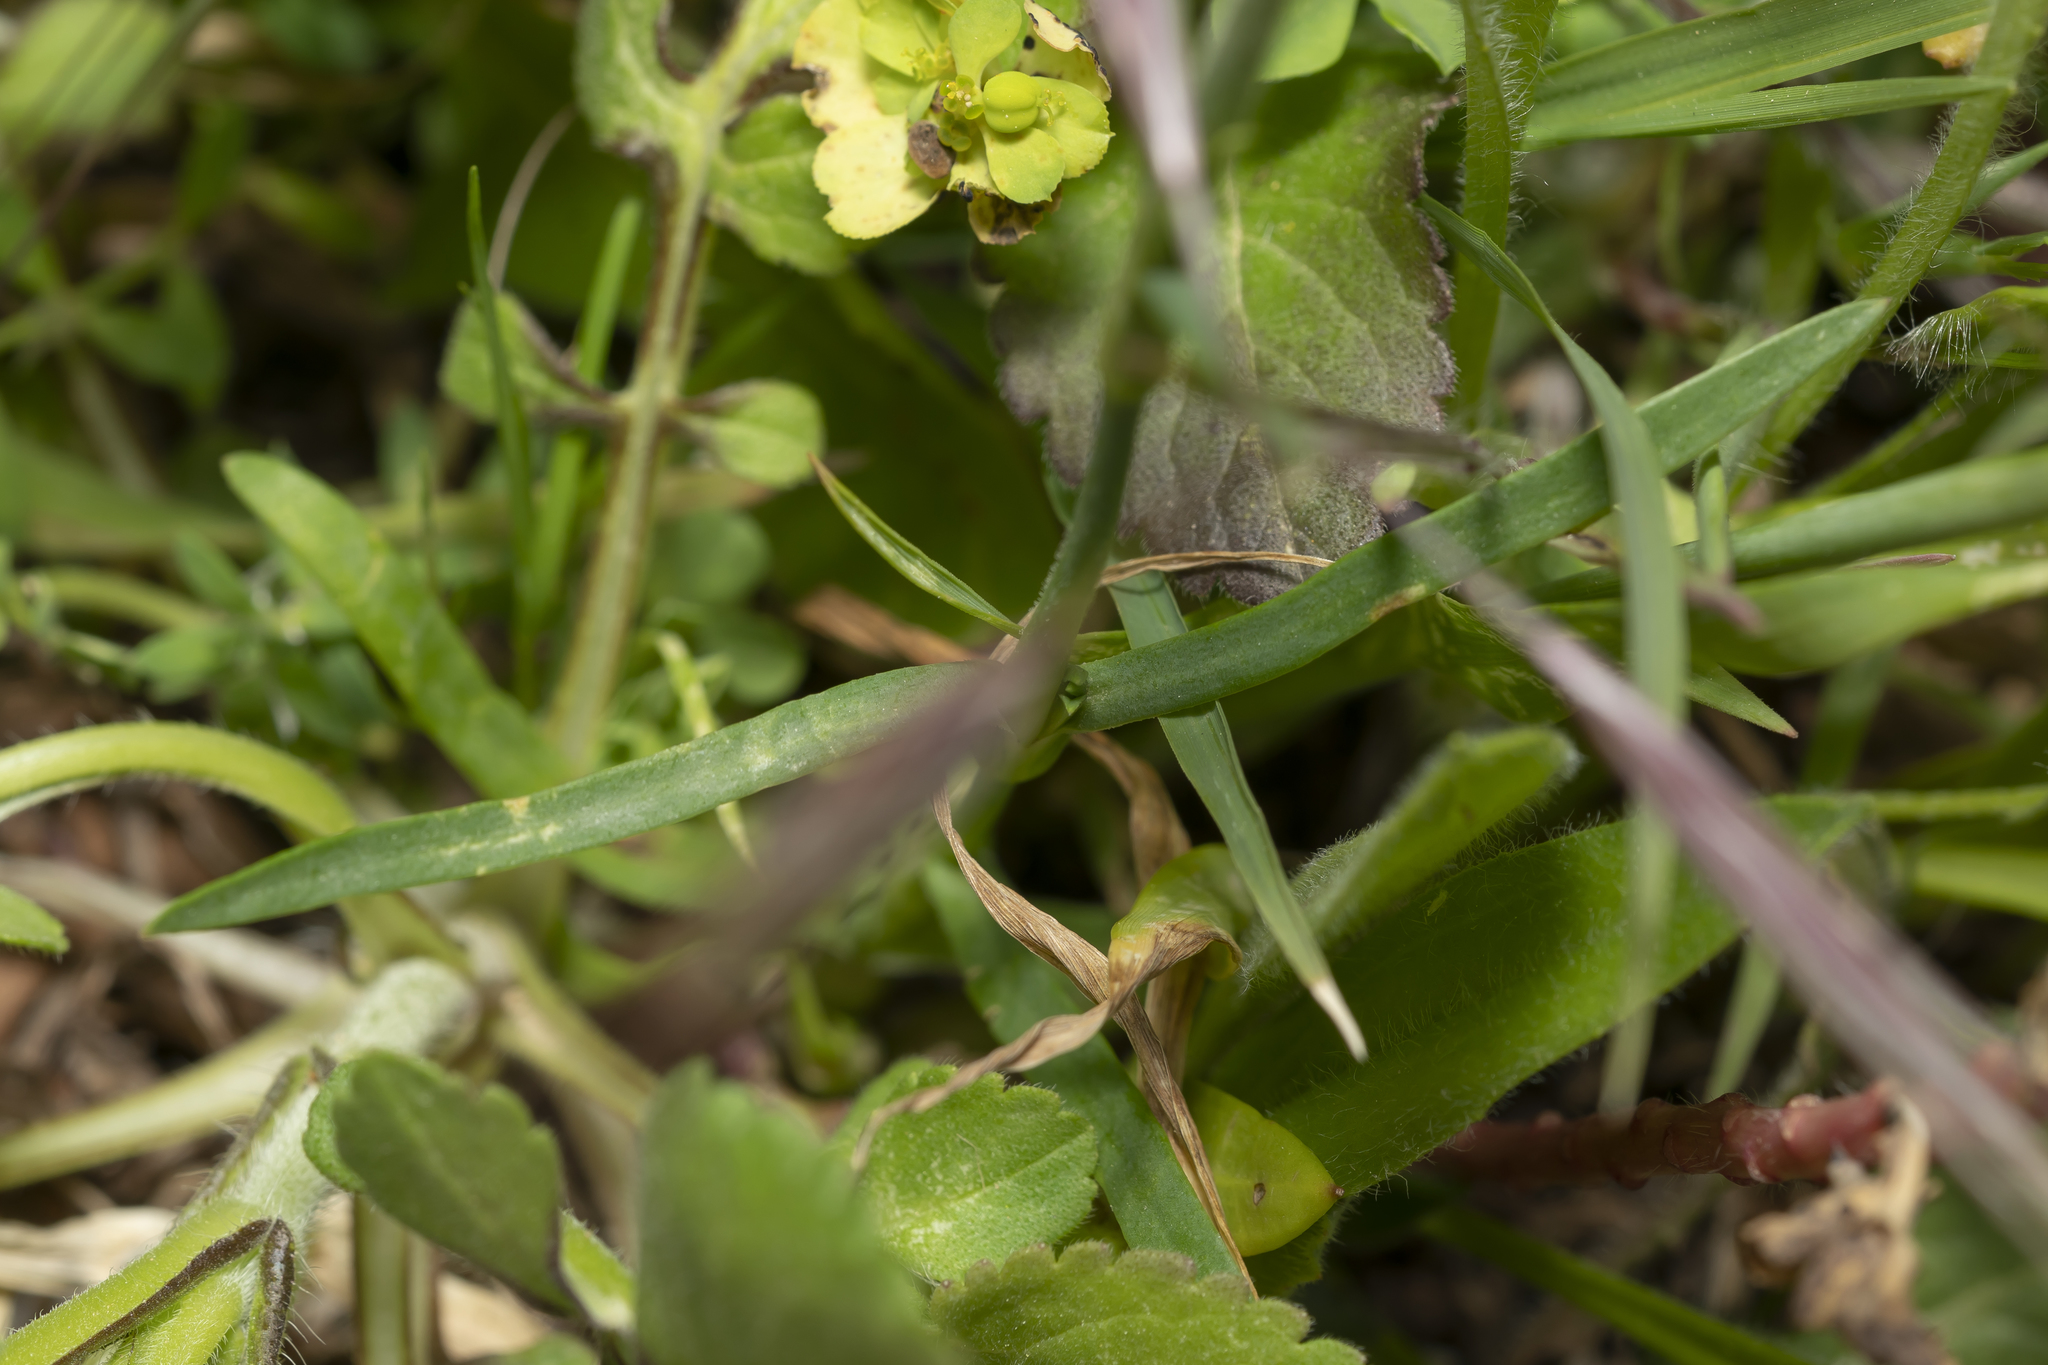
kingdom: Plantae
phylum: Tracheophyta
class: Magnoliopsida
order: Caryophyllales
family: Caryophyllaceae
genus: Petrorhagia
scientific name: Petrorhagia dubia
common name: Hairypink
